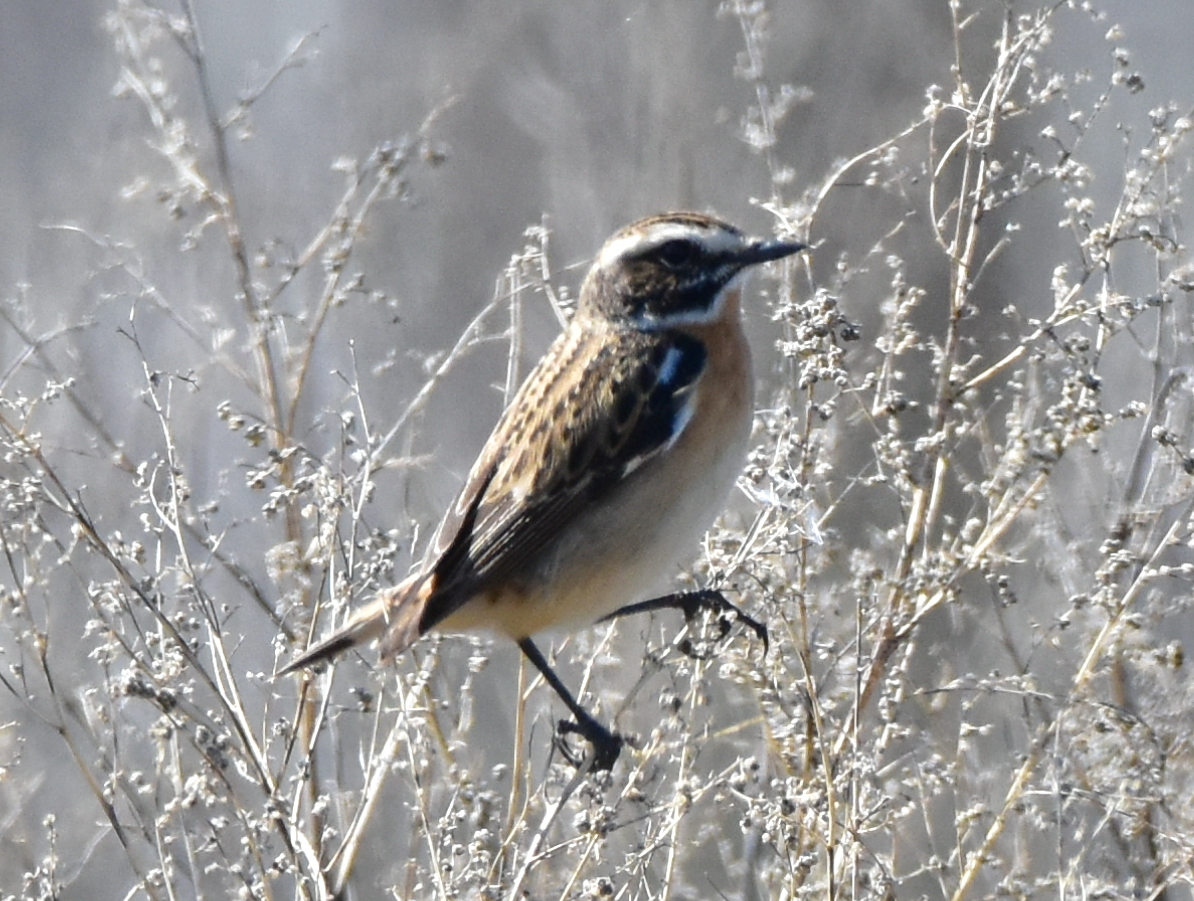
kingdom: Animalia
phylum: Chordata
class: Aves
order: Passeriformes
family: Muscicapidae
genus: Saxicola
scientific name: Saxicola rubetra
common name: Whinchat
